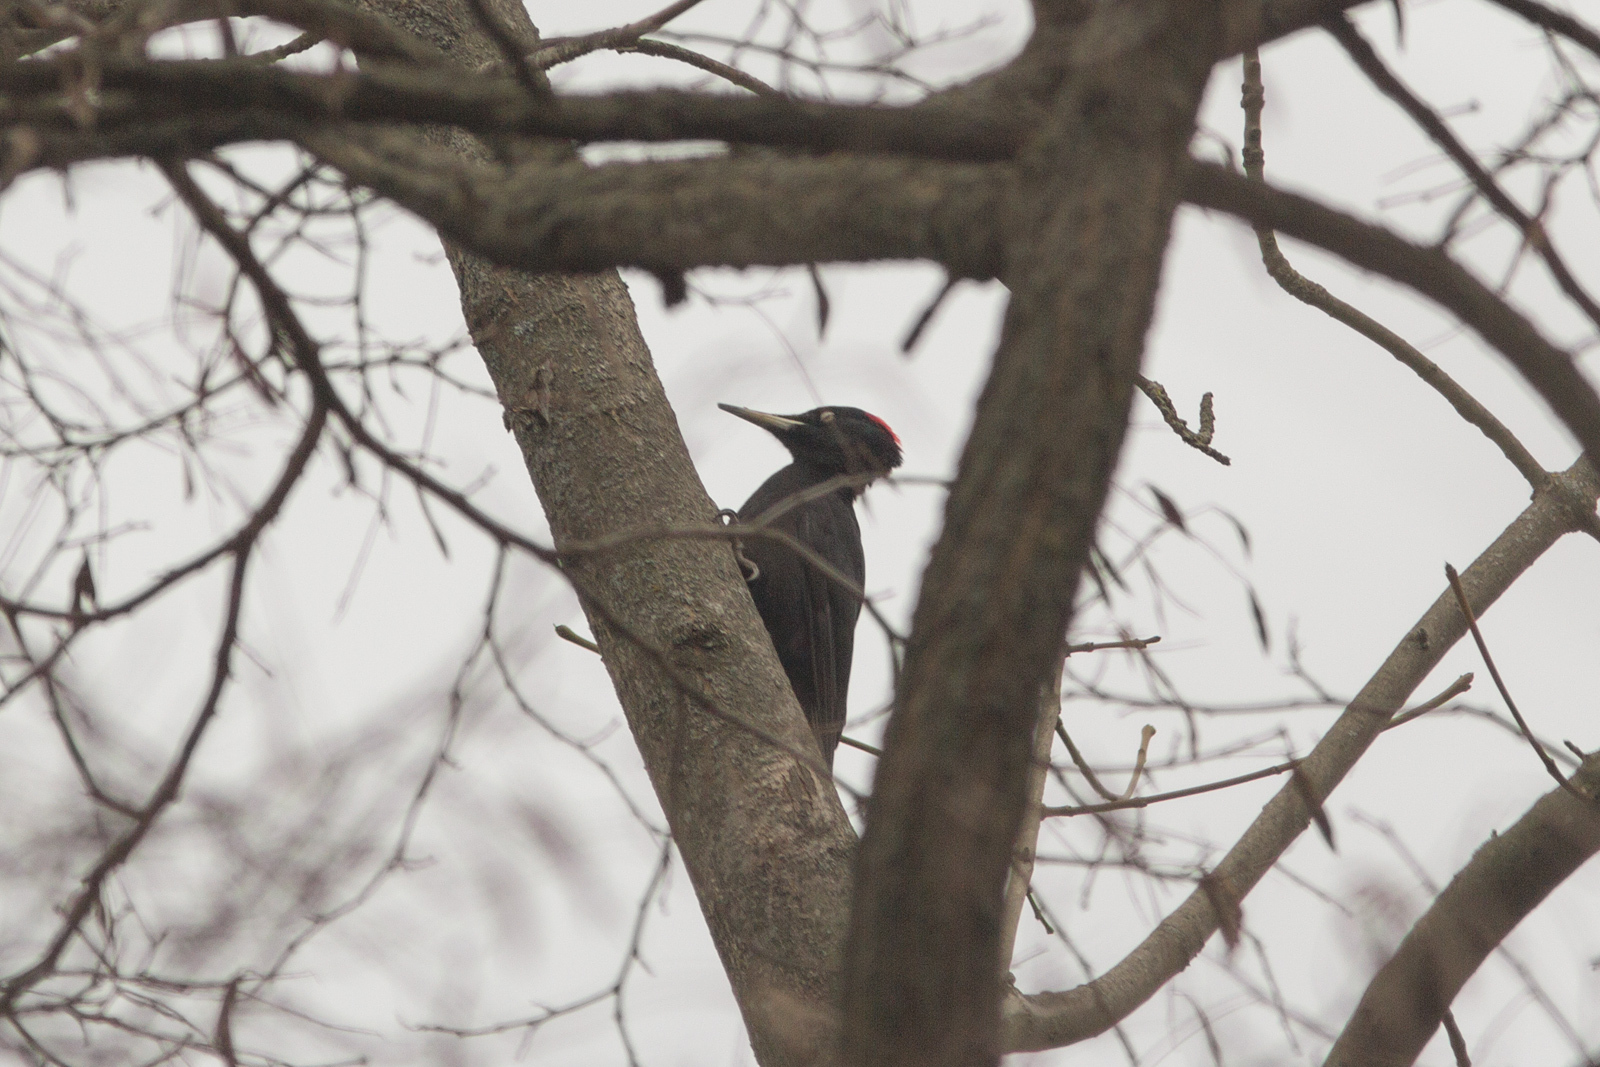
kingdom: Animalia
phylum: Chordata
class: Aves
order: Piciformes
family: Picidae
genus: Dryocopus
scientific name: Dryocopus martius
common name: Black woodpecker
